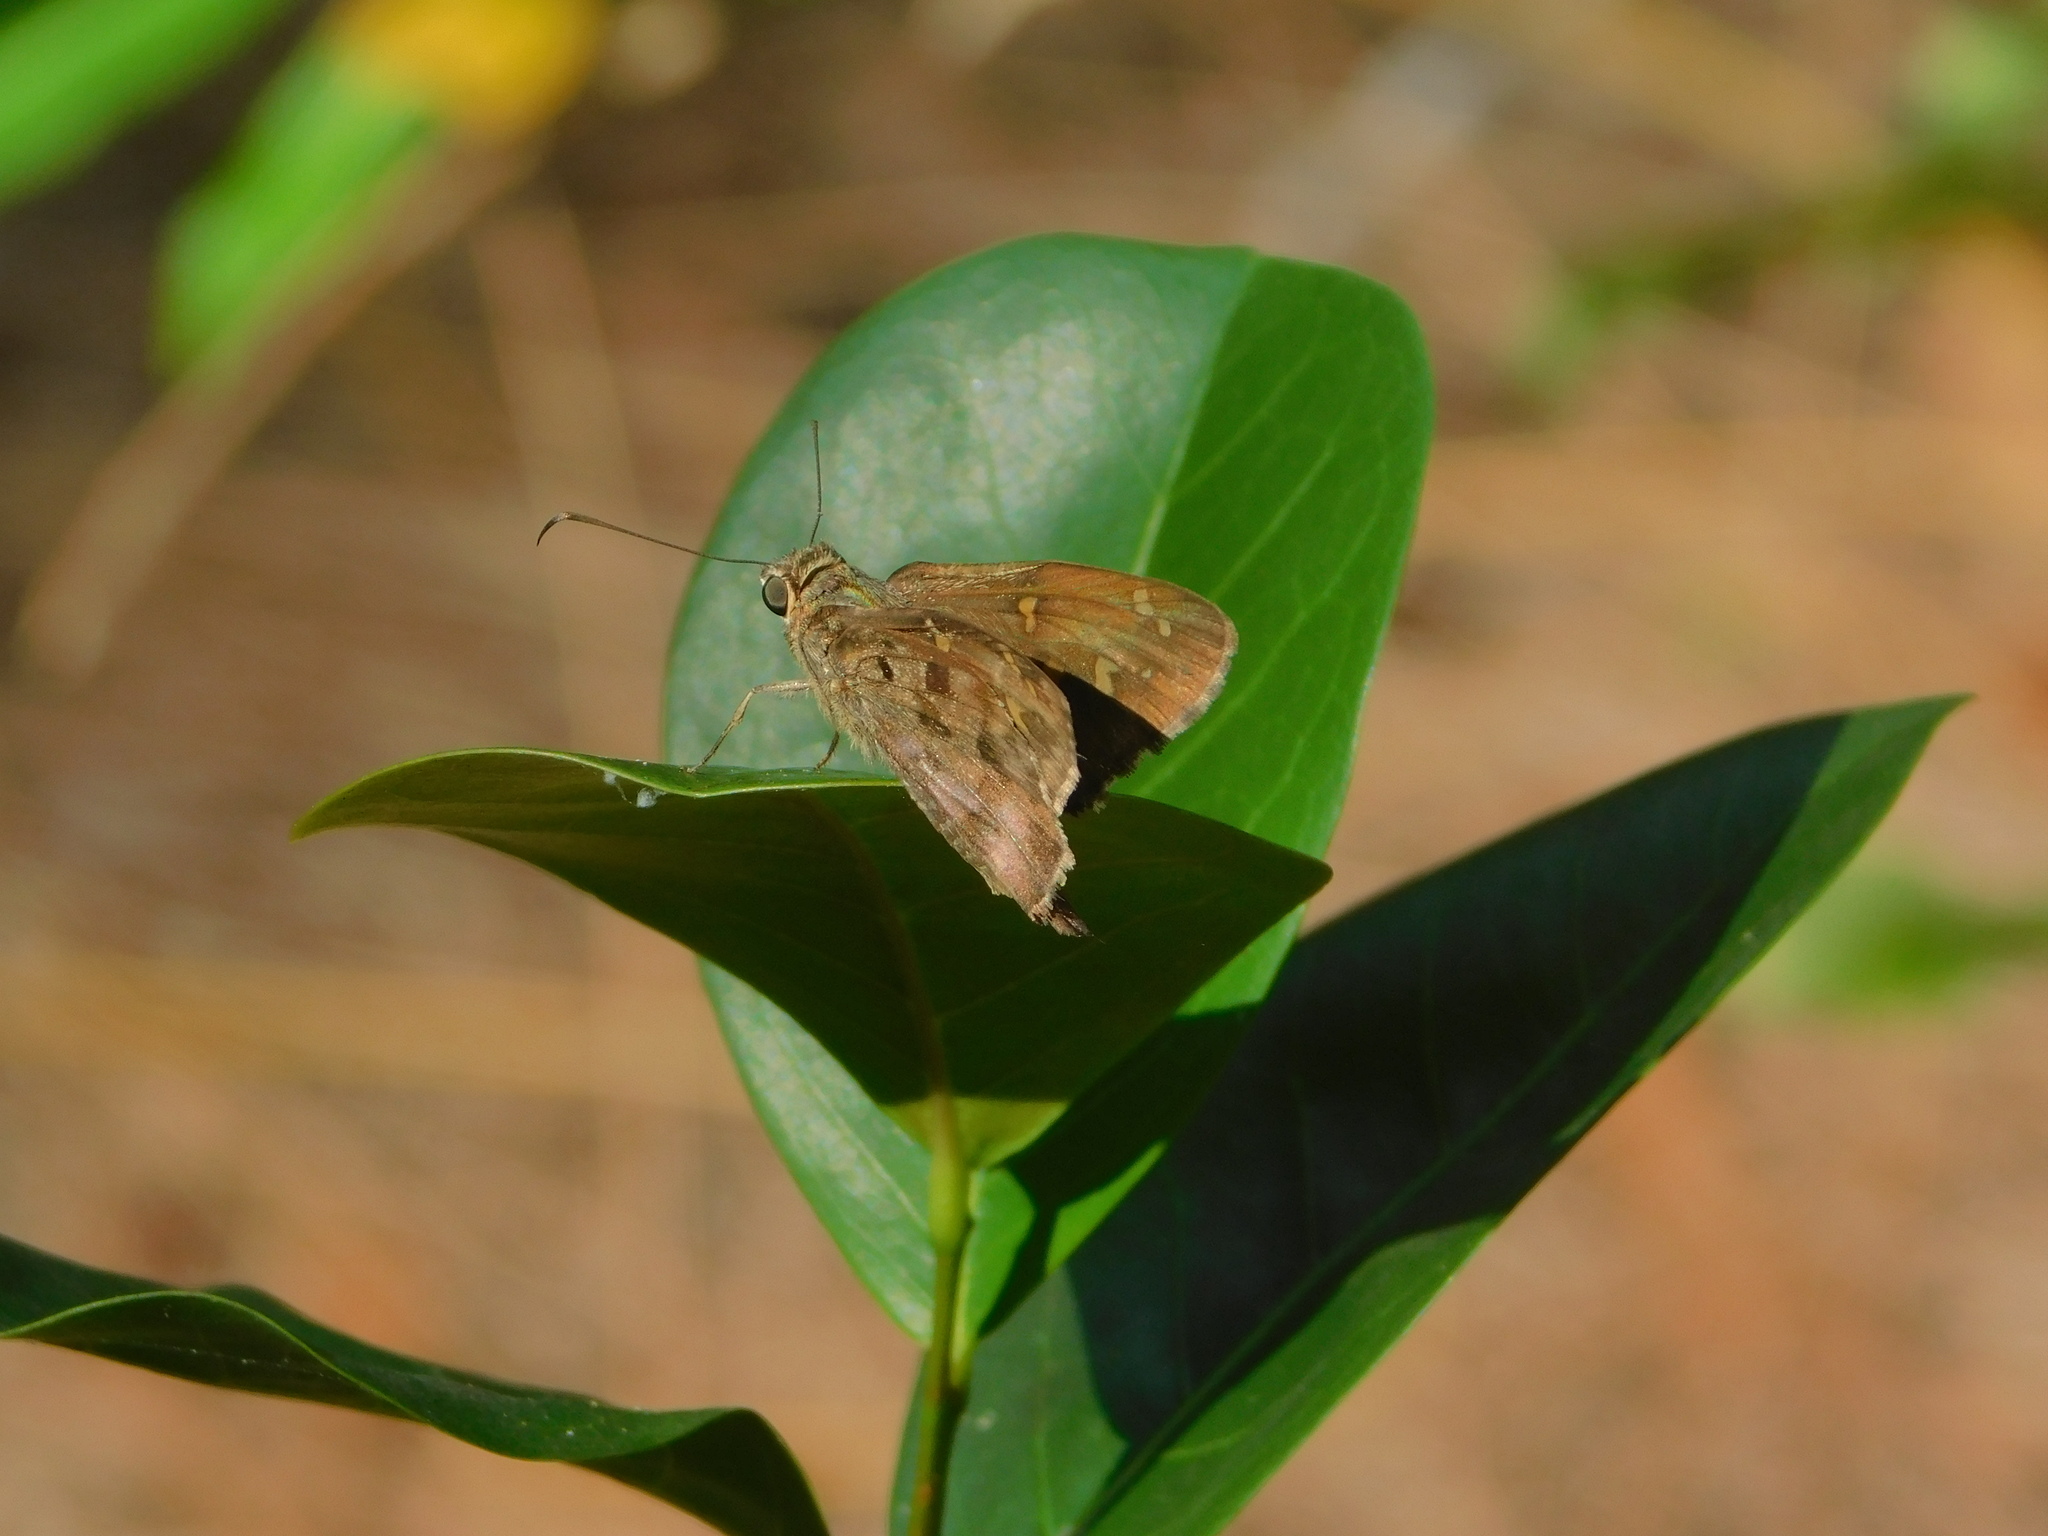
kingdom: Animalia
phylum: Arthropoda
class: Insecta
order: Lepidoptera
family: Hesperiidae
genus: Thorybes
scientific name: Thorybes
